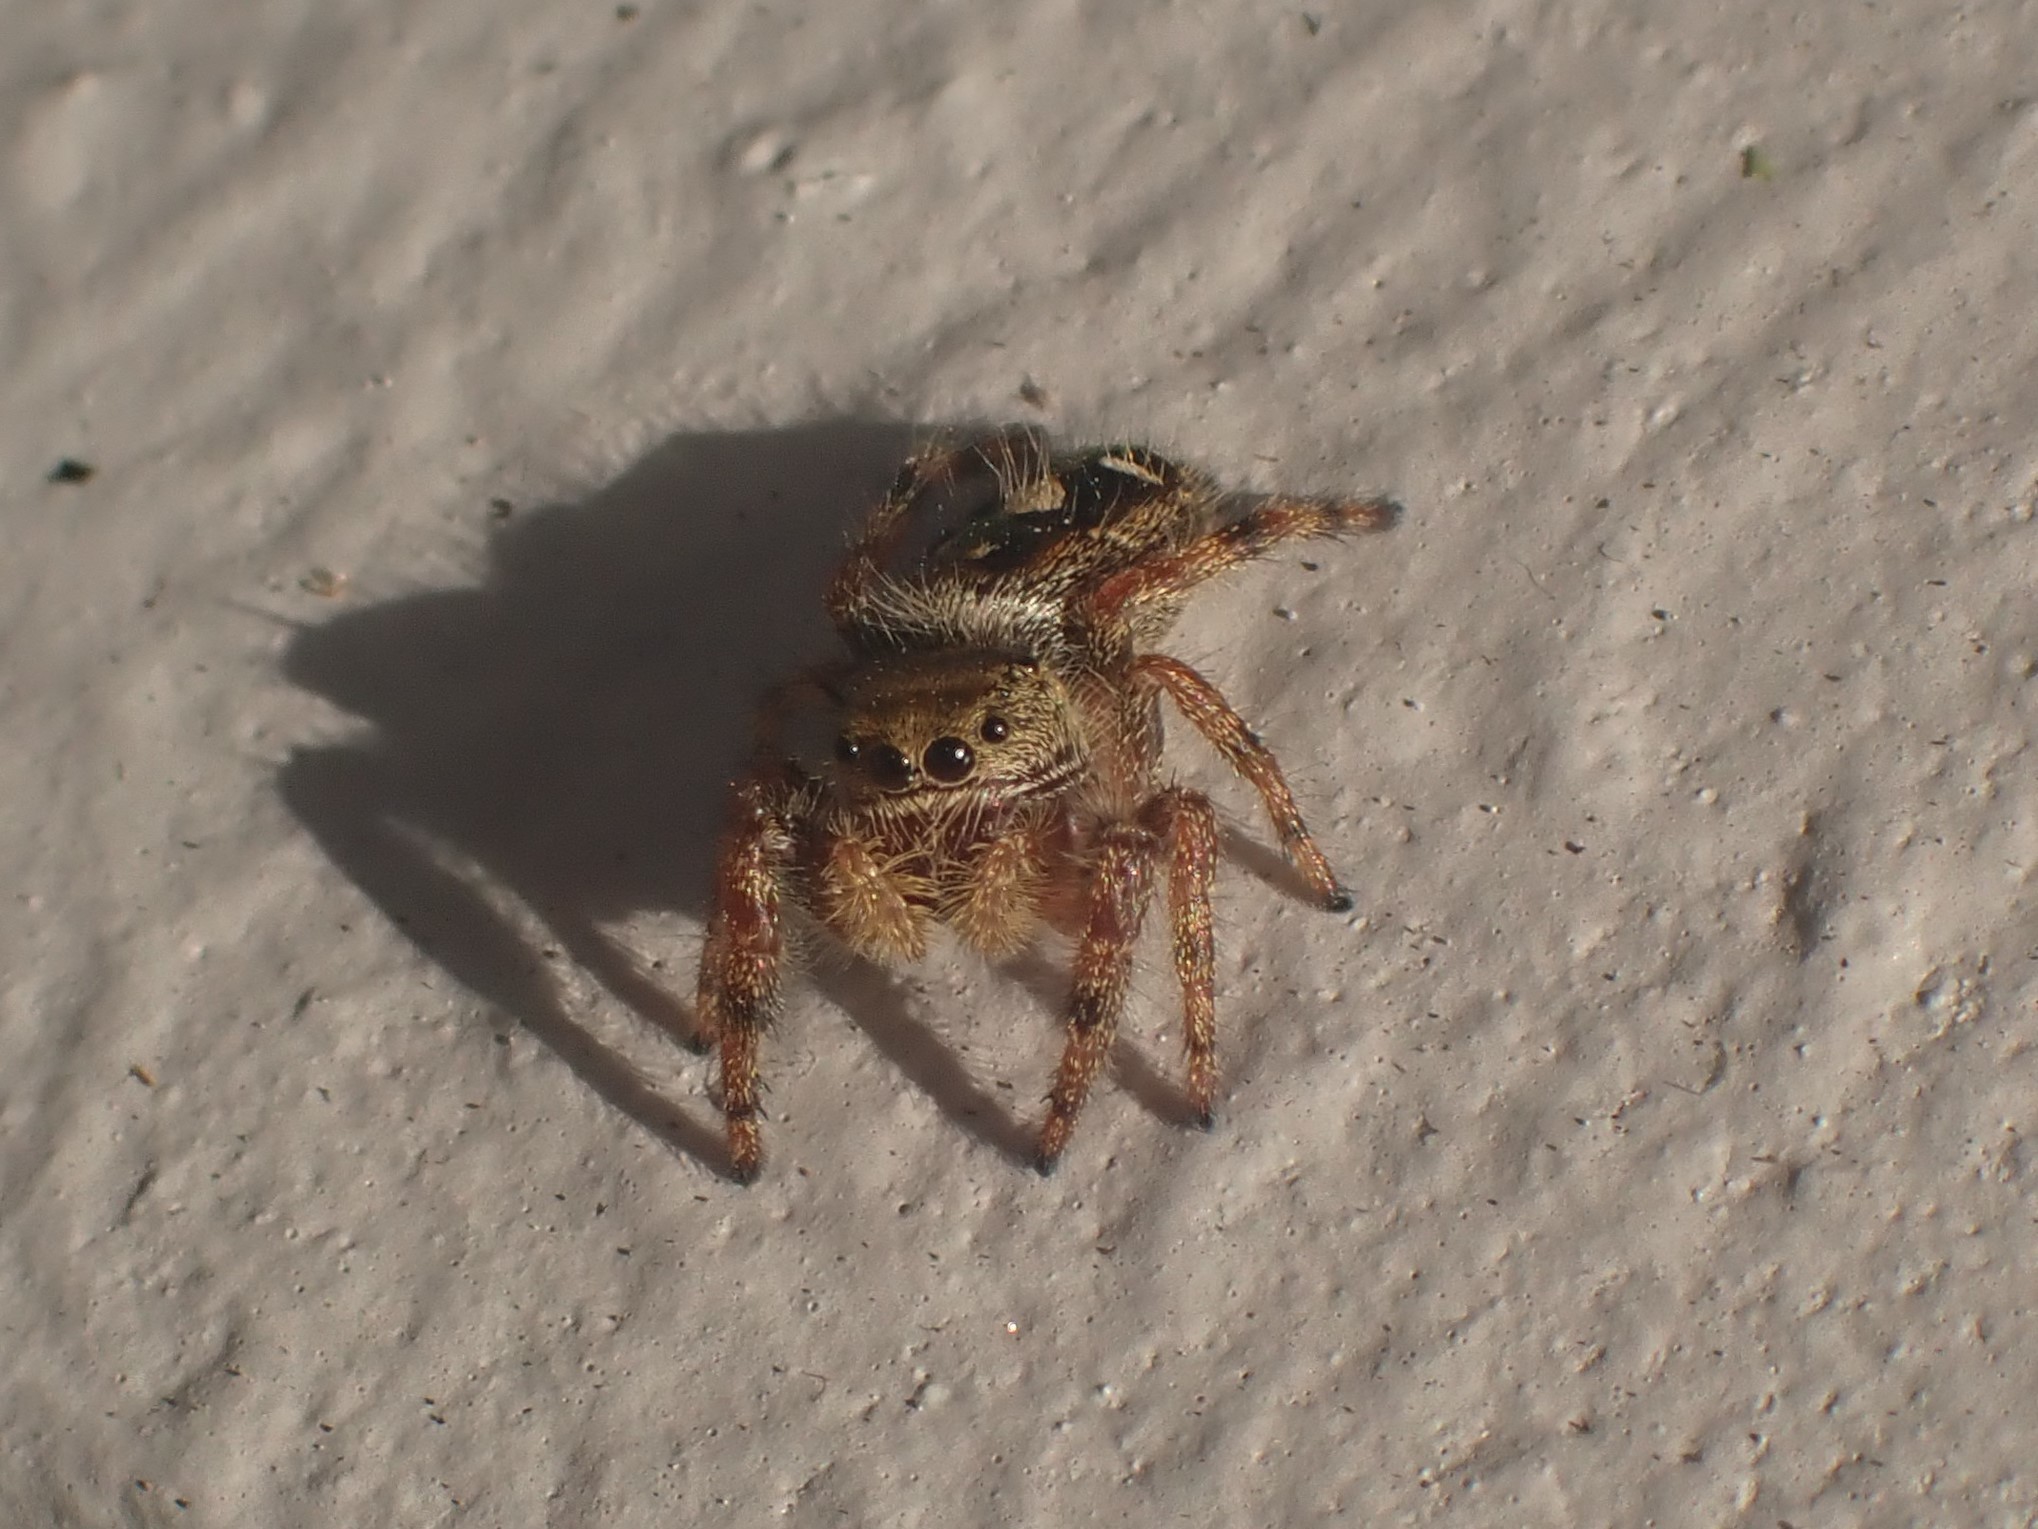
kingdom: Animalia
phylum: Arthropoda
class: Arachnida
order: Araneae
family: Salticidae
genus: Phidippus
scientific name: Phidippus audax
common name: Bold jumper
